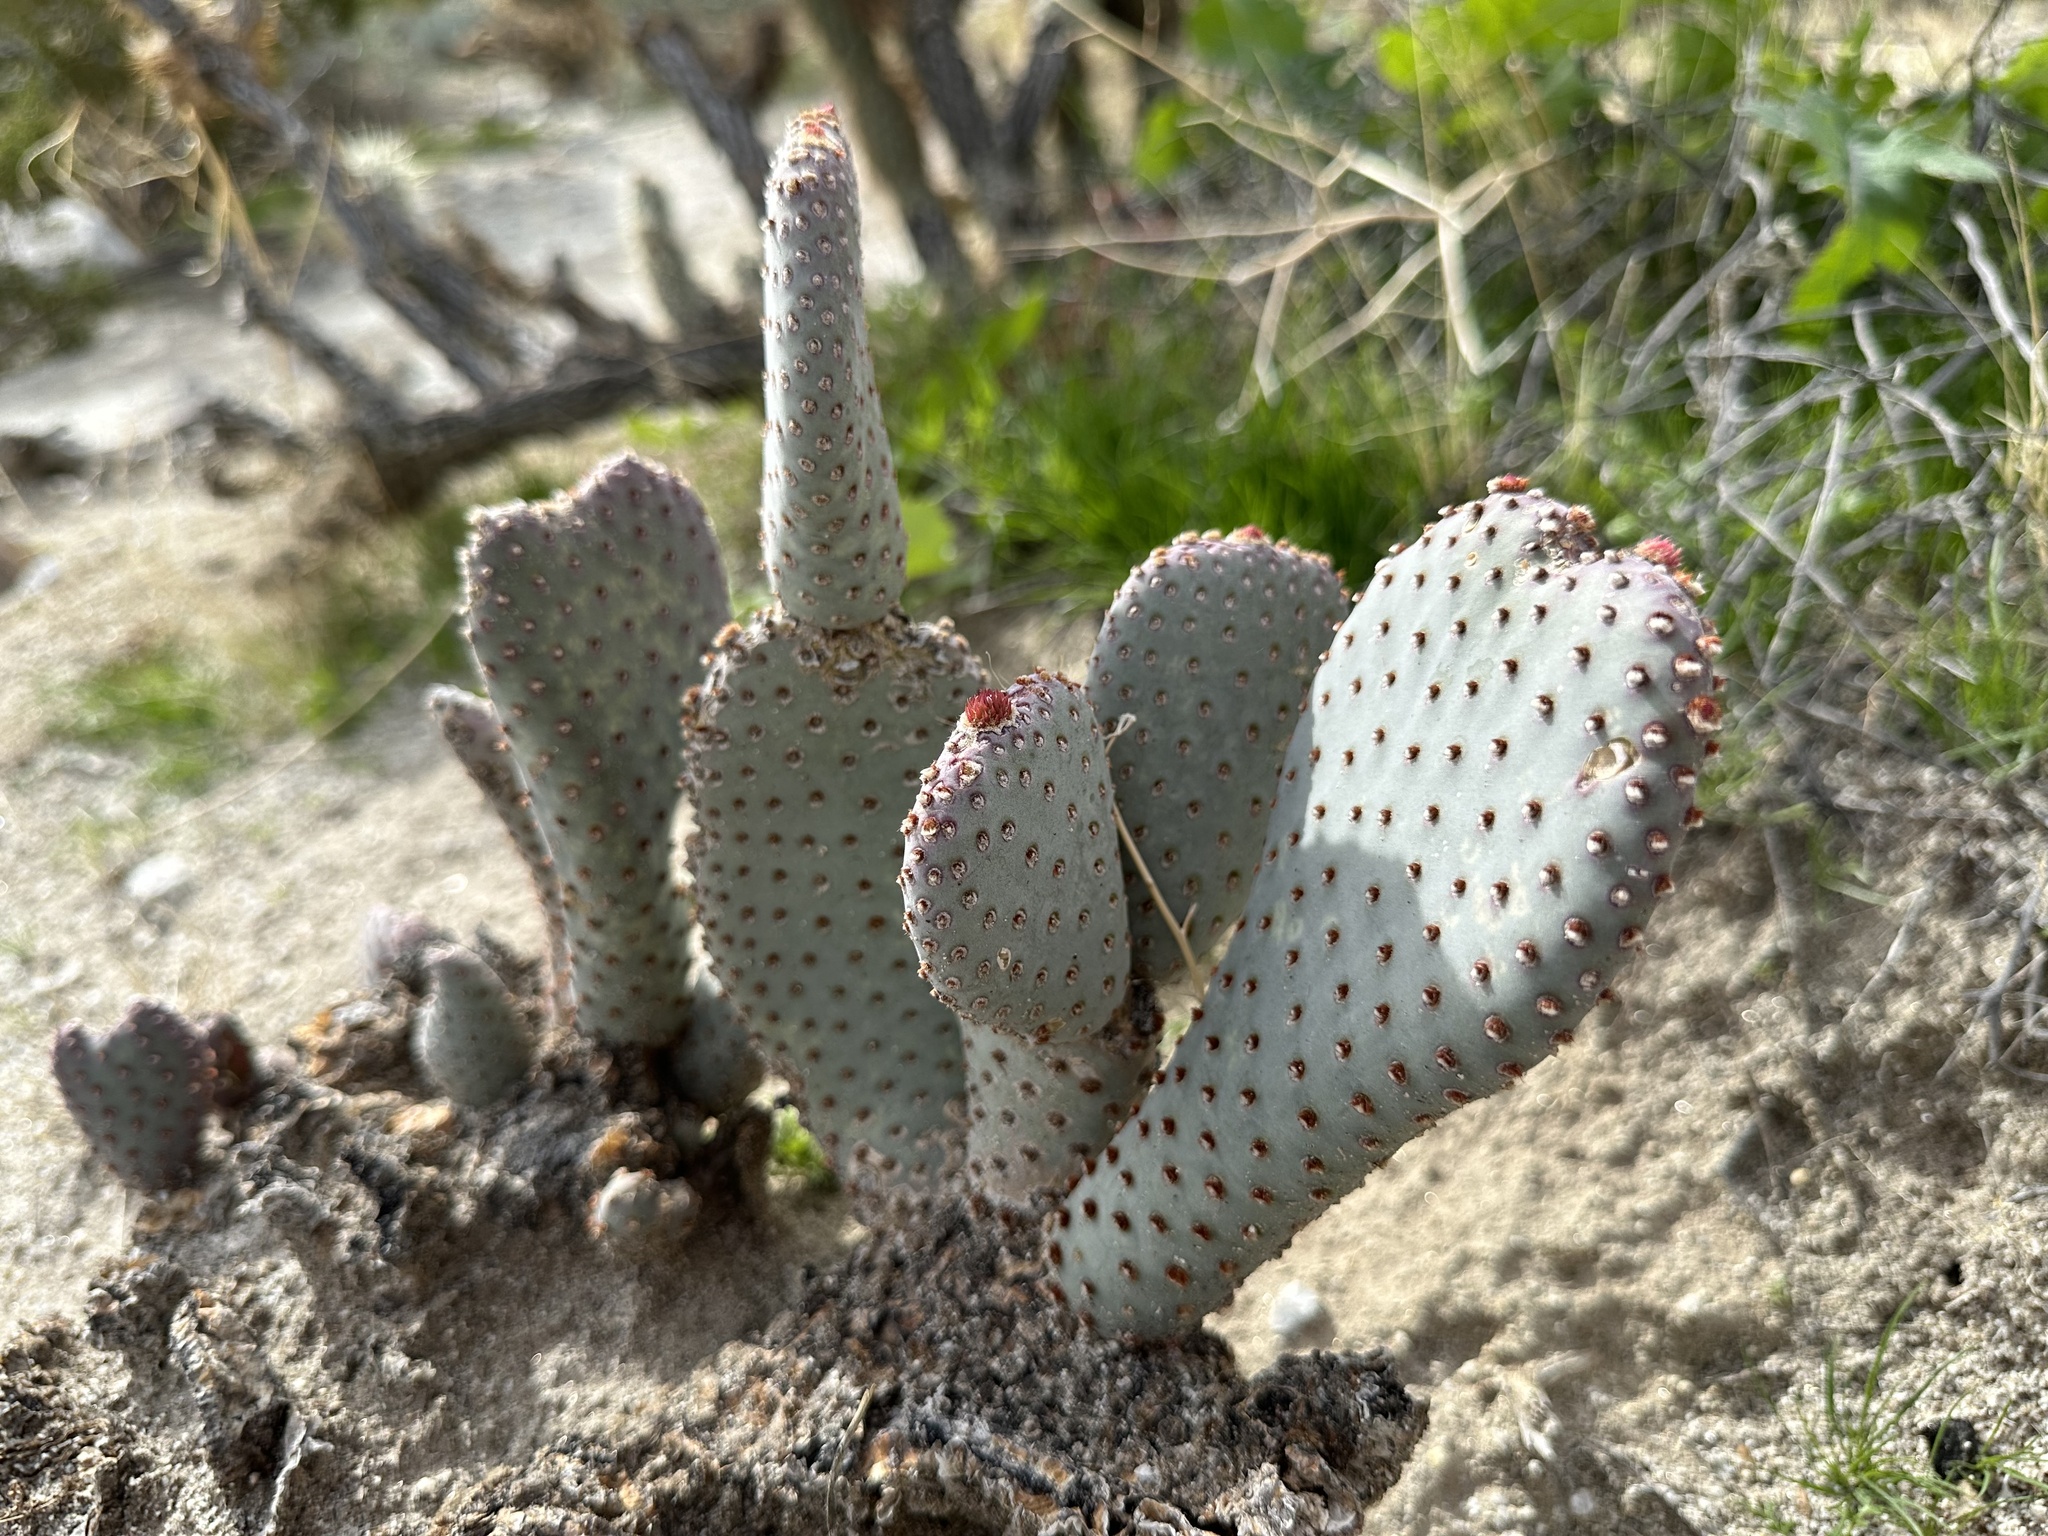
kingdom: Plantae
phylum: Tracheophyta
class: Magnoliopsida
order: Caryophyllales
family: Cactaceae
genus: Opuntia
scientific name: Opuntia basilaris
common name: Beavertail prickly-pear
